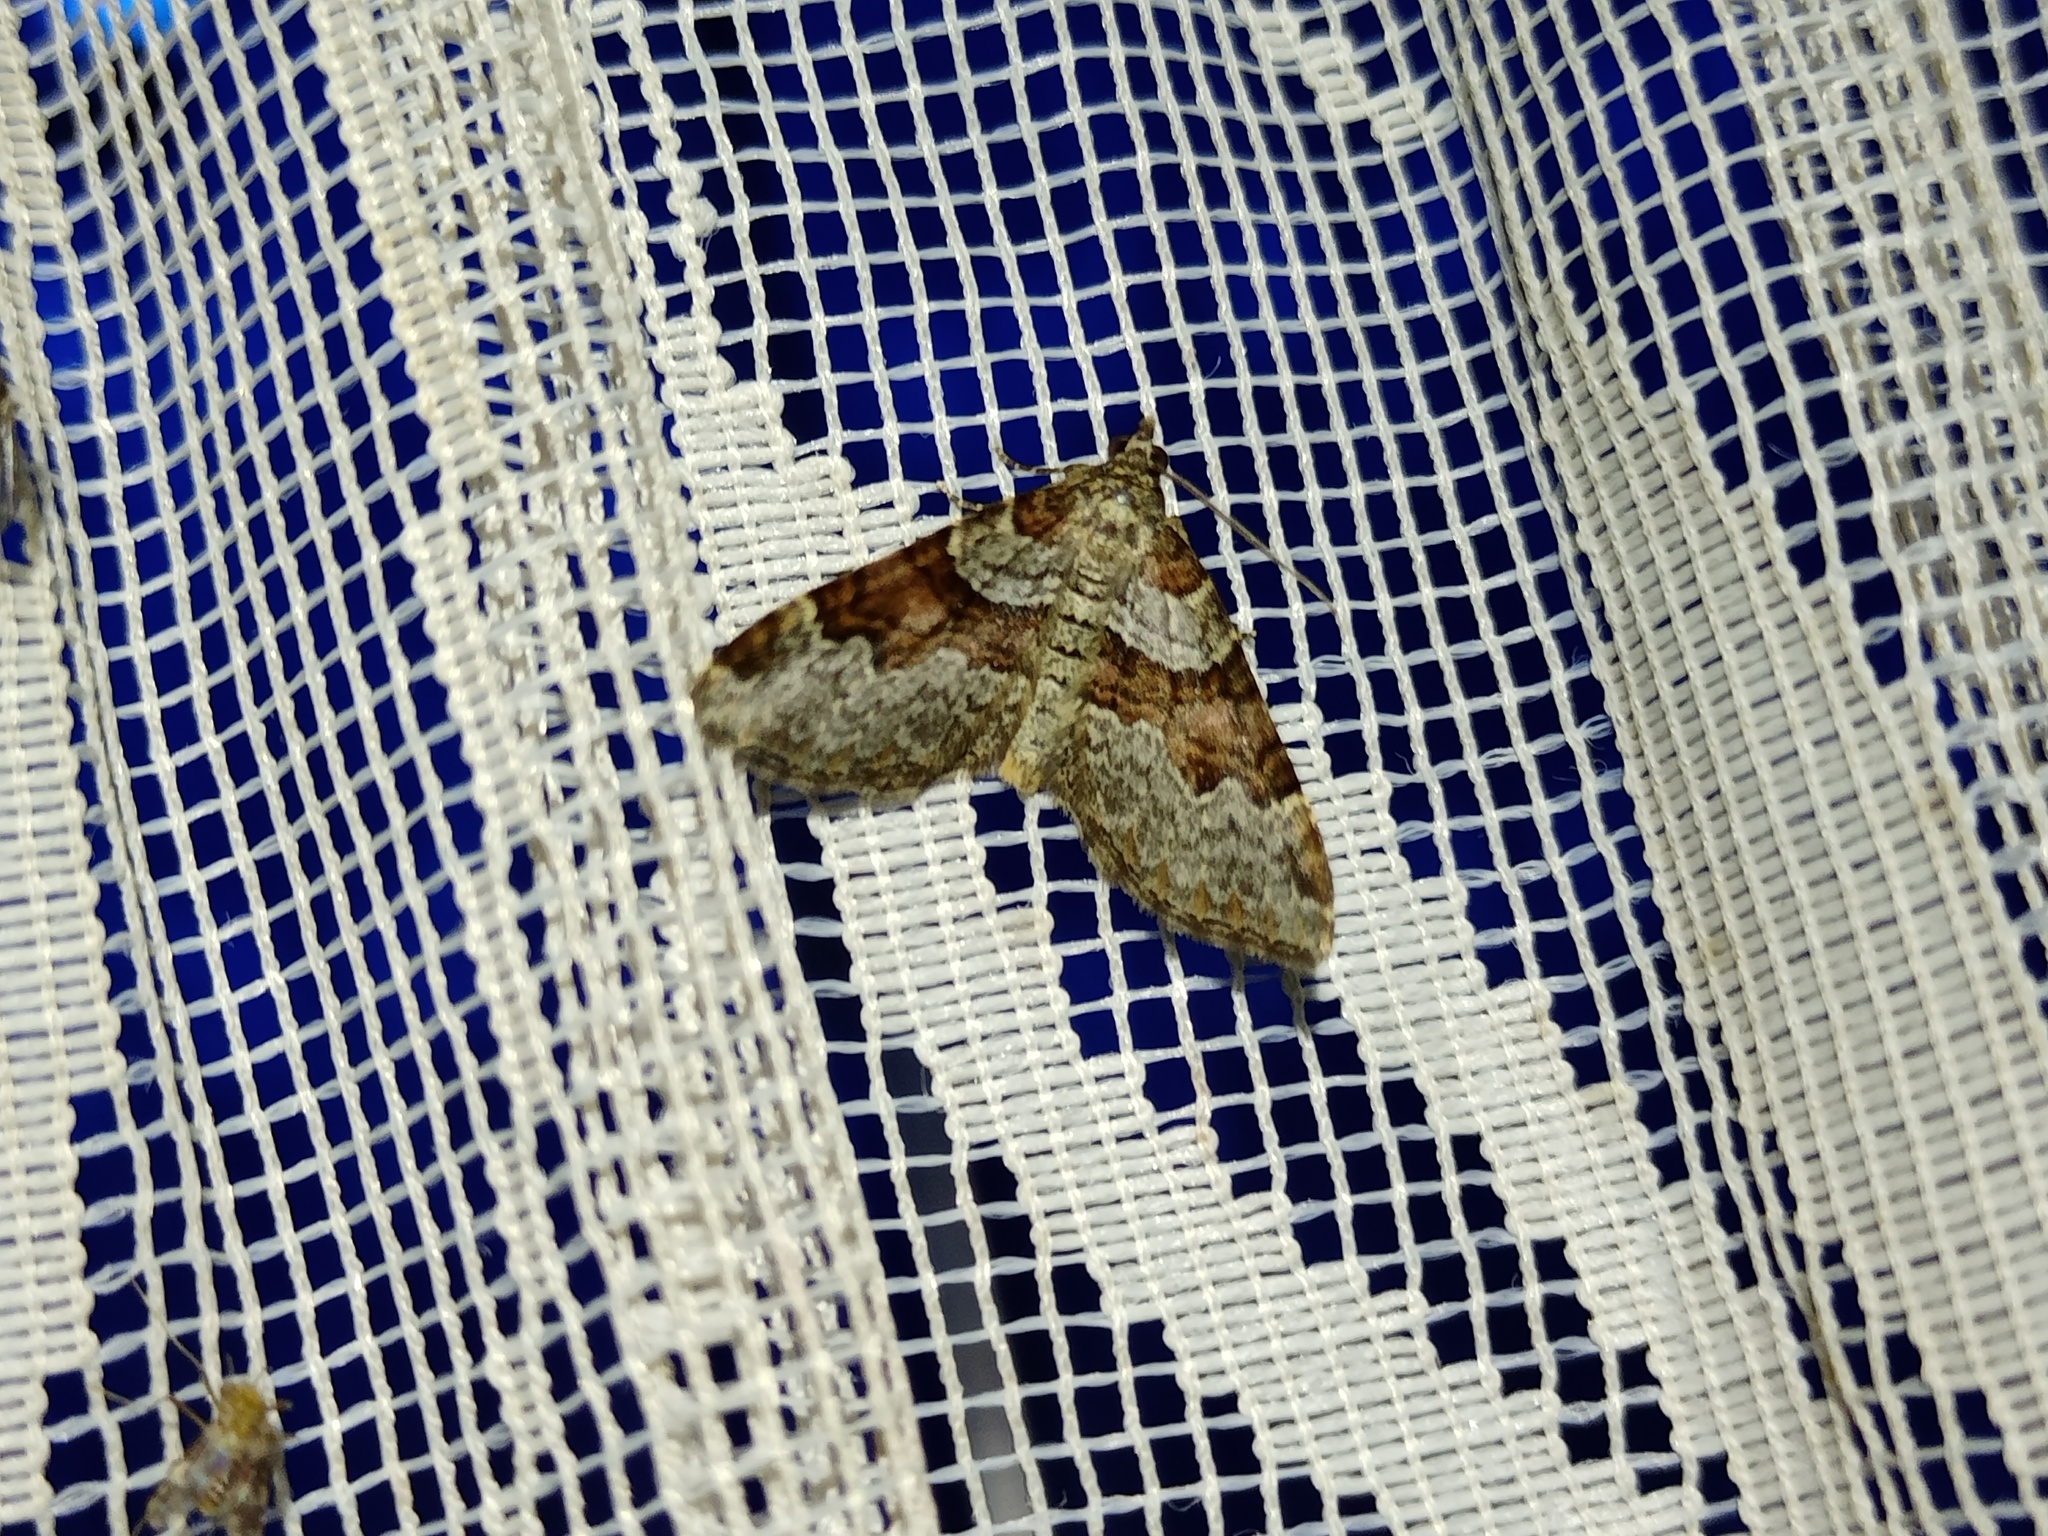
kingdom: Animalia
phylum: Arthropoda
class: Insecta
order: Lepidoptera
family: Geometridae
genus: Xanthorhoe
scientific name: Xanthorhoe designata
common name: Flame carpet
